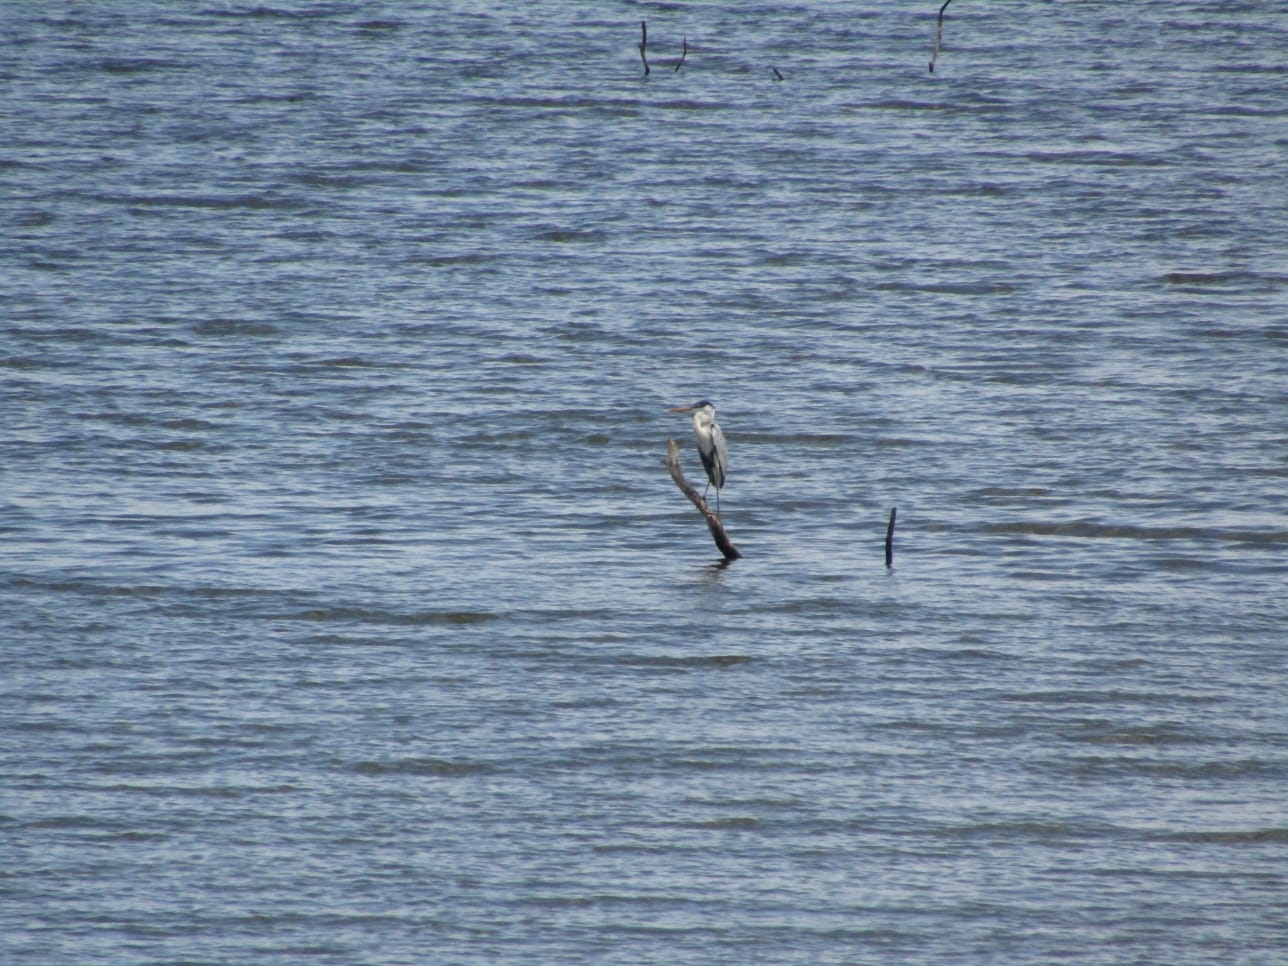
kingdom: Animalia
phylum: Chordata
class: Aves
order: Pelecaniformes
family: Ardeidae
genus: Ardea
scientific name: Ardea cocoi
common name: Cocoi heron
